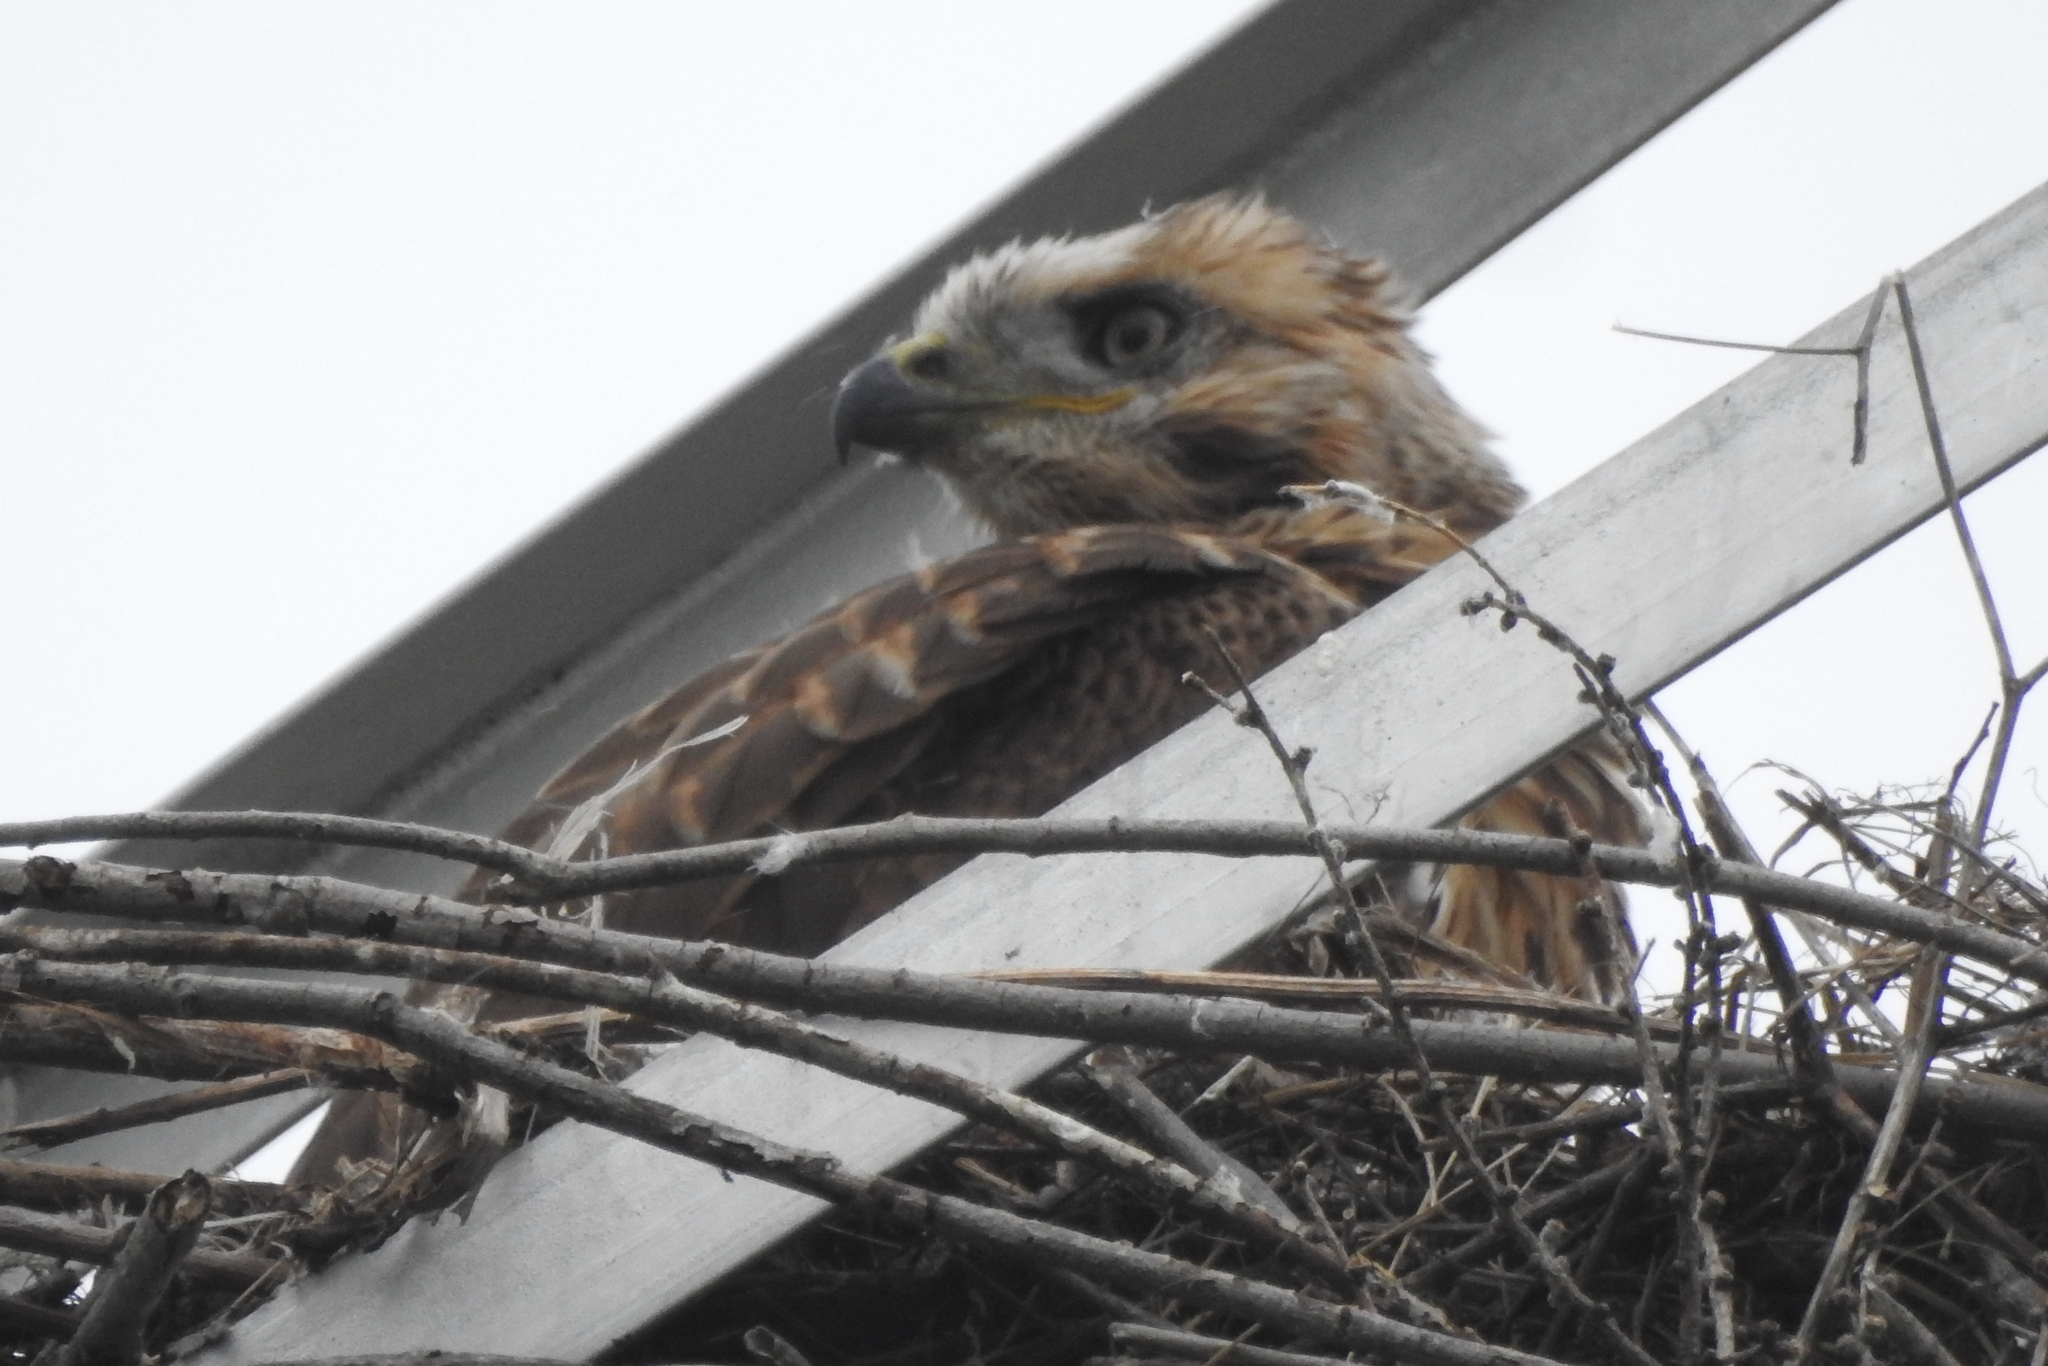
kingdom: Animalia
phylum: Chordata
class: Aves
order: Accipitriformes
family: Accipitridae
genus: Buteo
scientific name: Buteo hemilasius
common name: Upland buzzard
